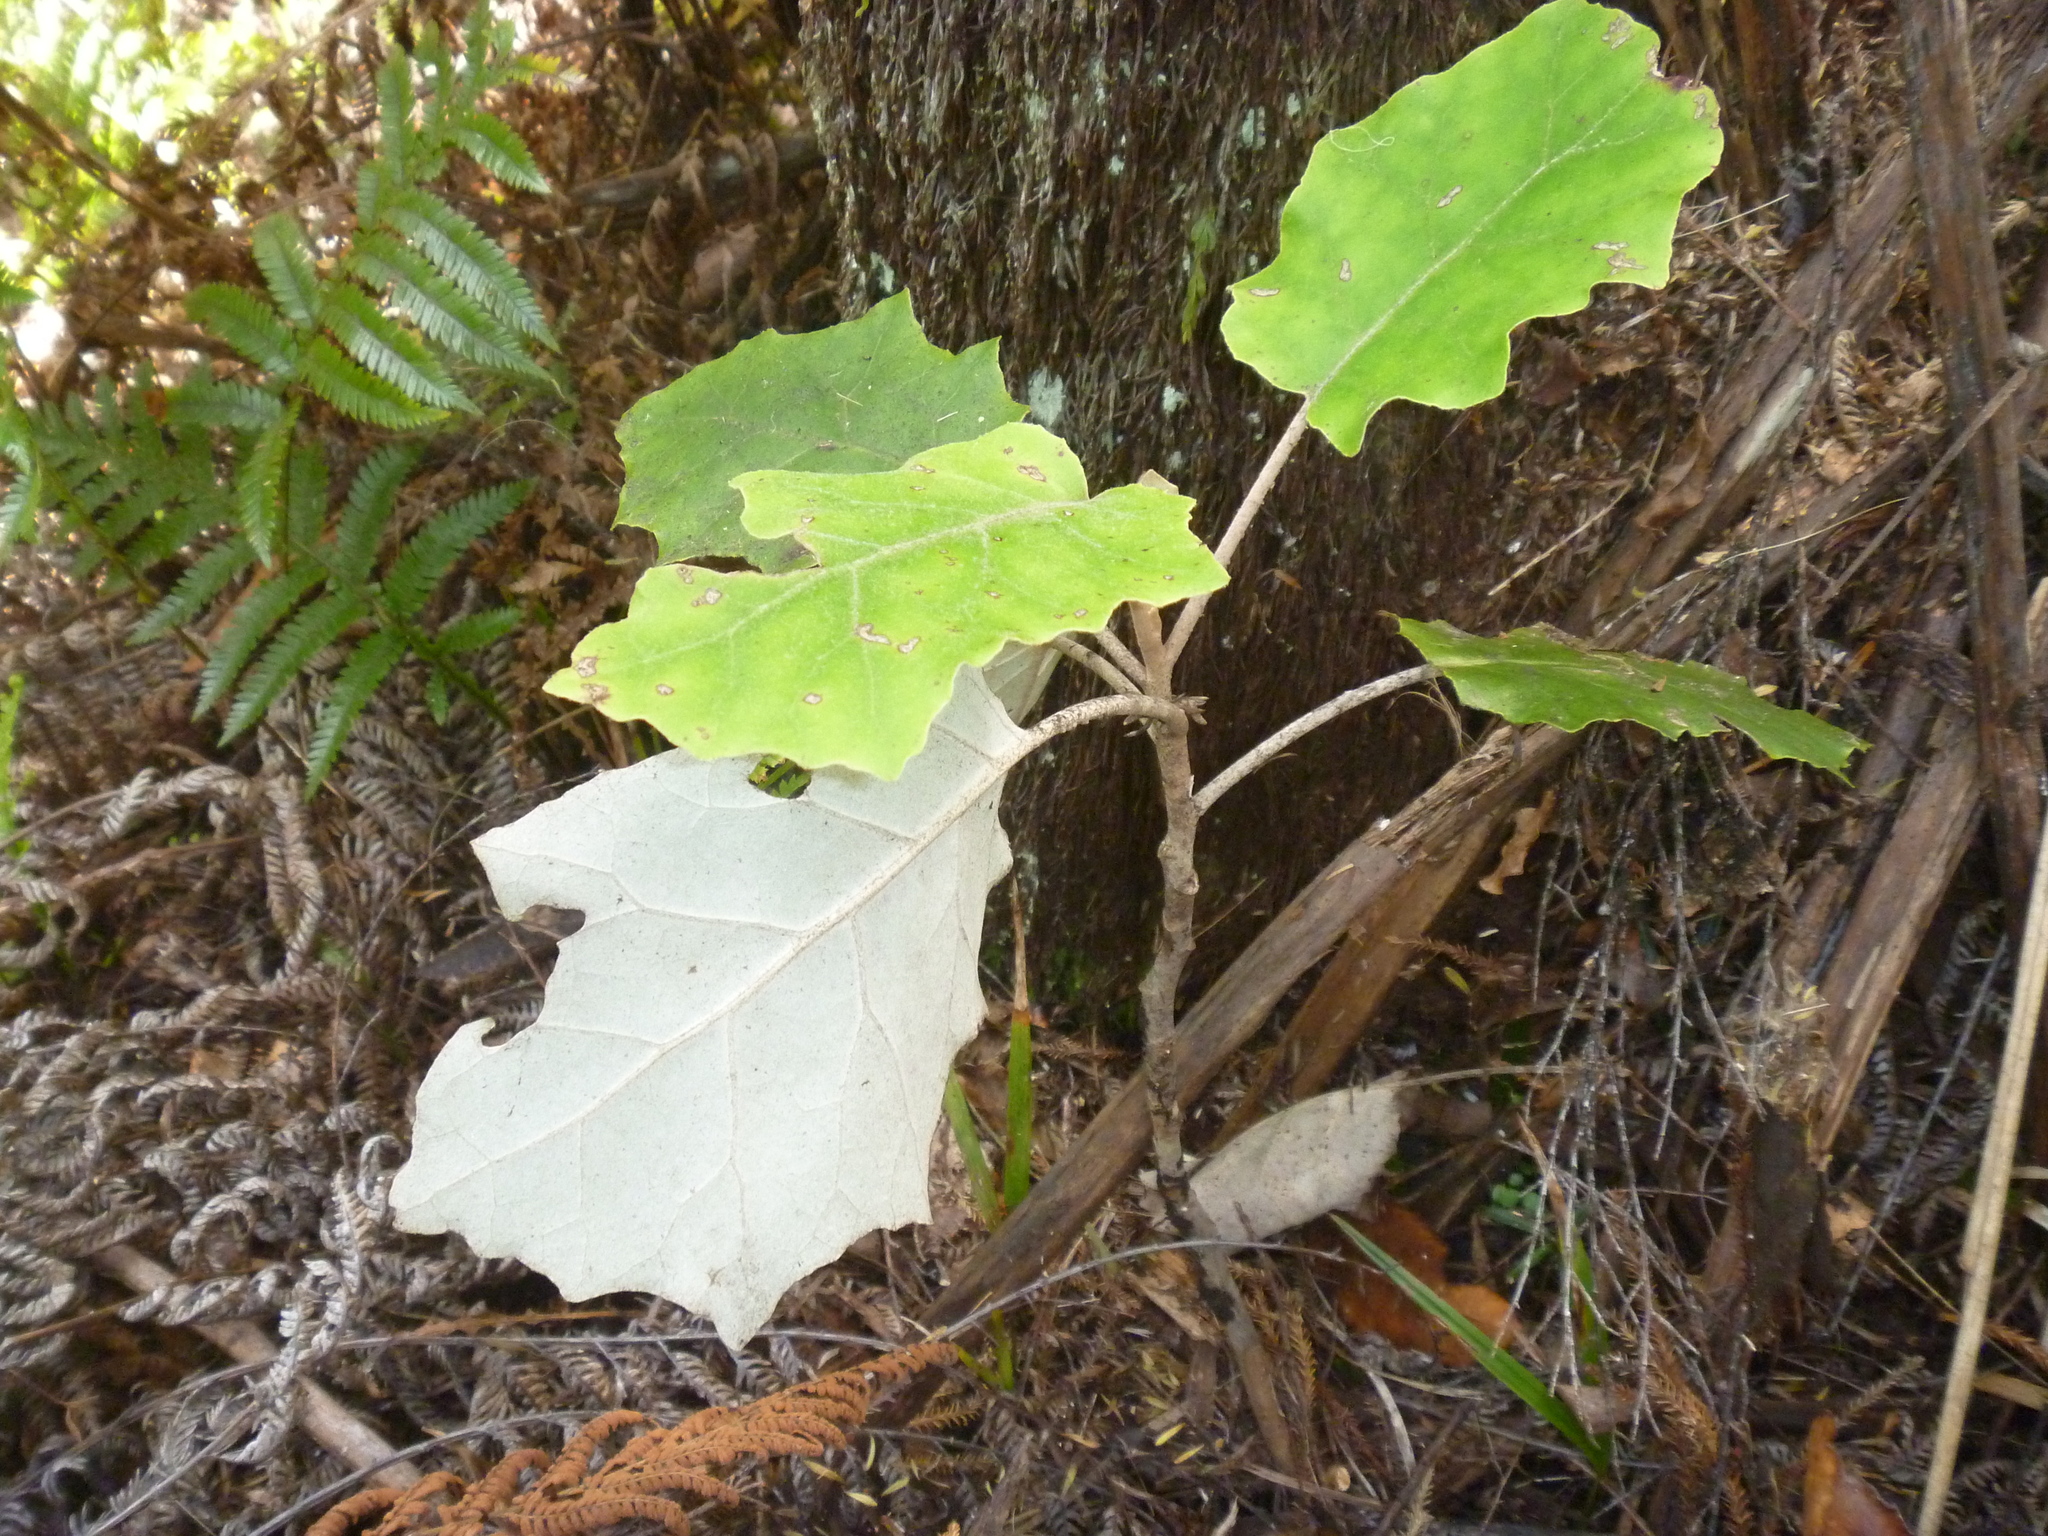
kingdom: Plantae
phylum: Tracheophyta
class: Magnoliopsida
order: Asterales
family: Asteraceae
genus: Brachyglottis
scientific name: Brachyglottis repanda
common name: Hedge ragwort
